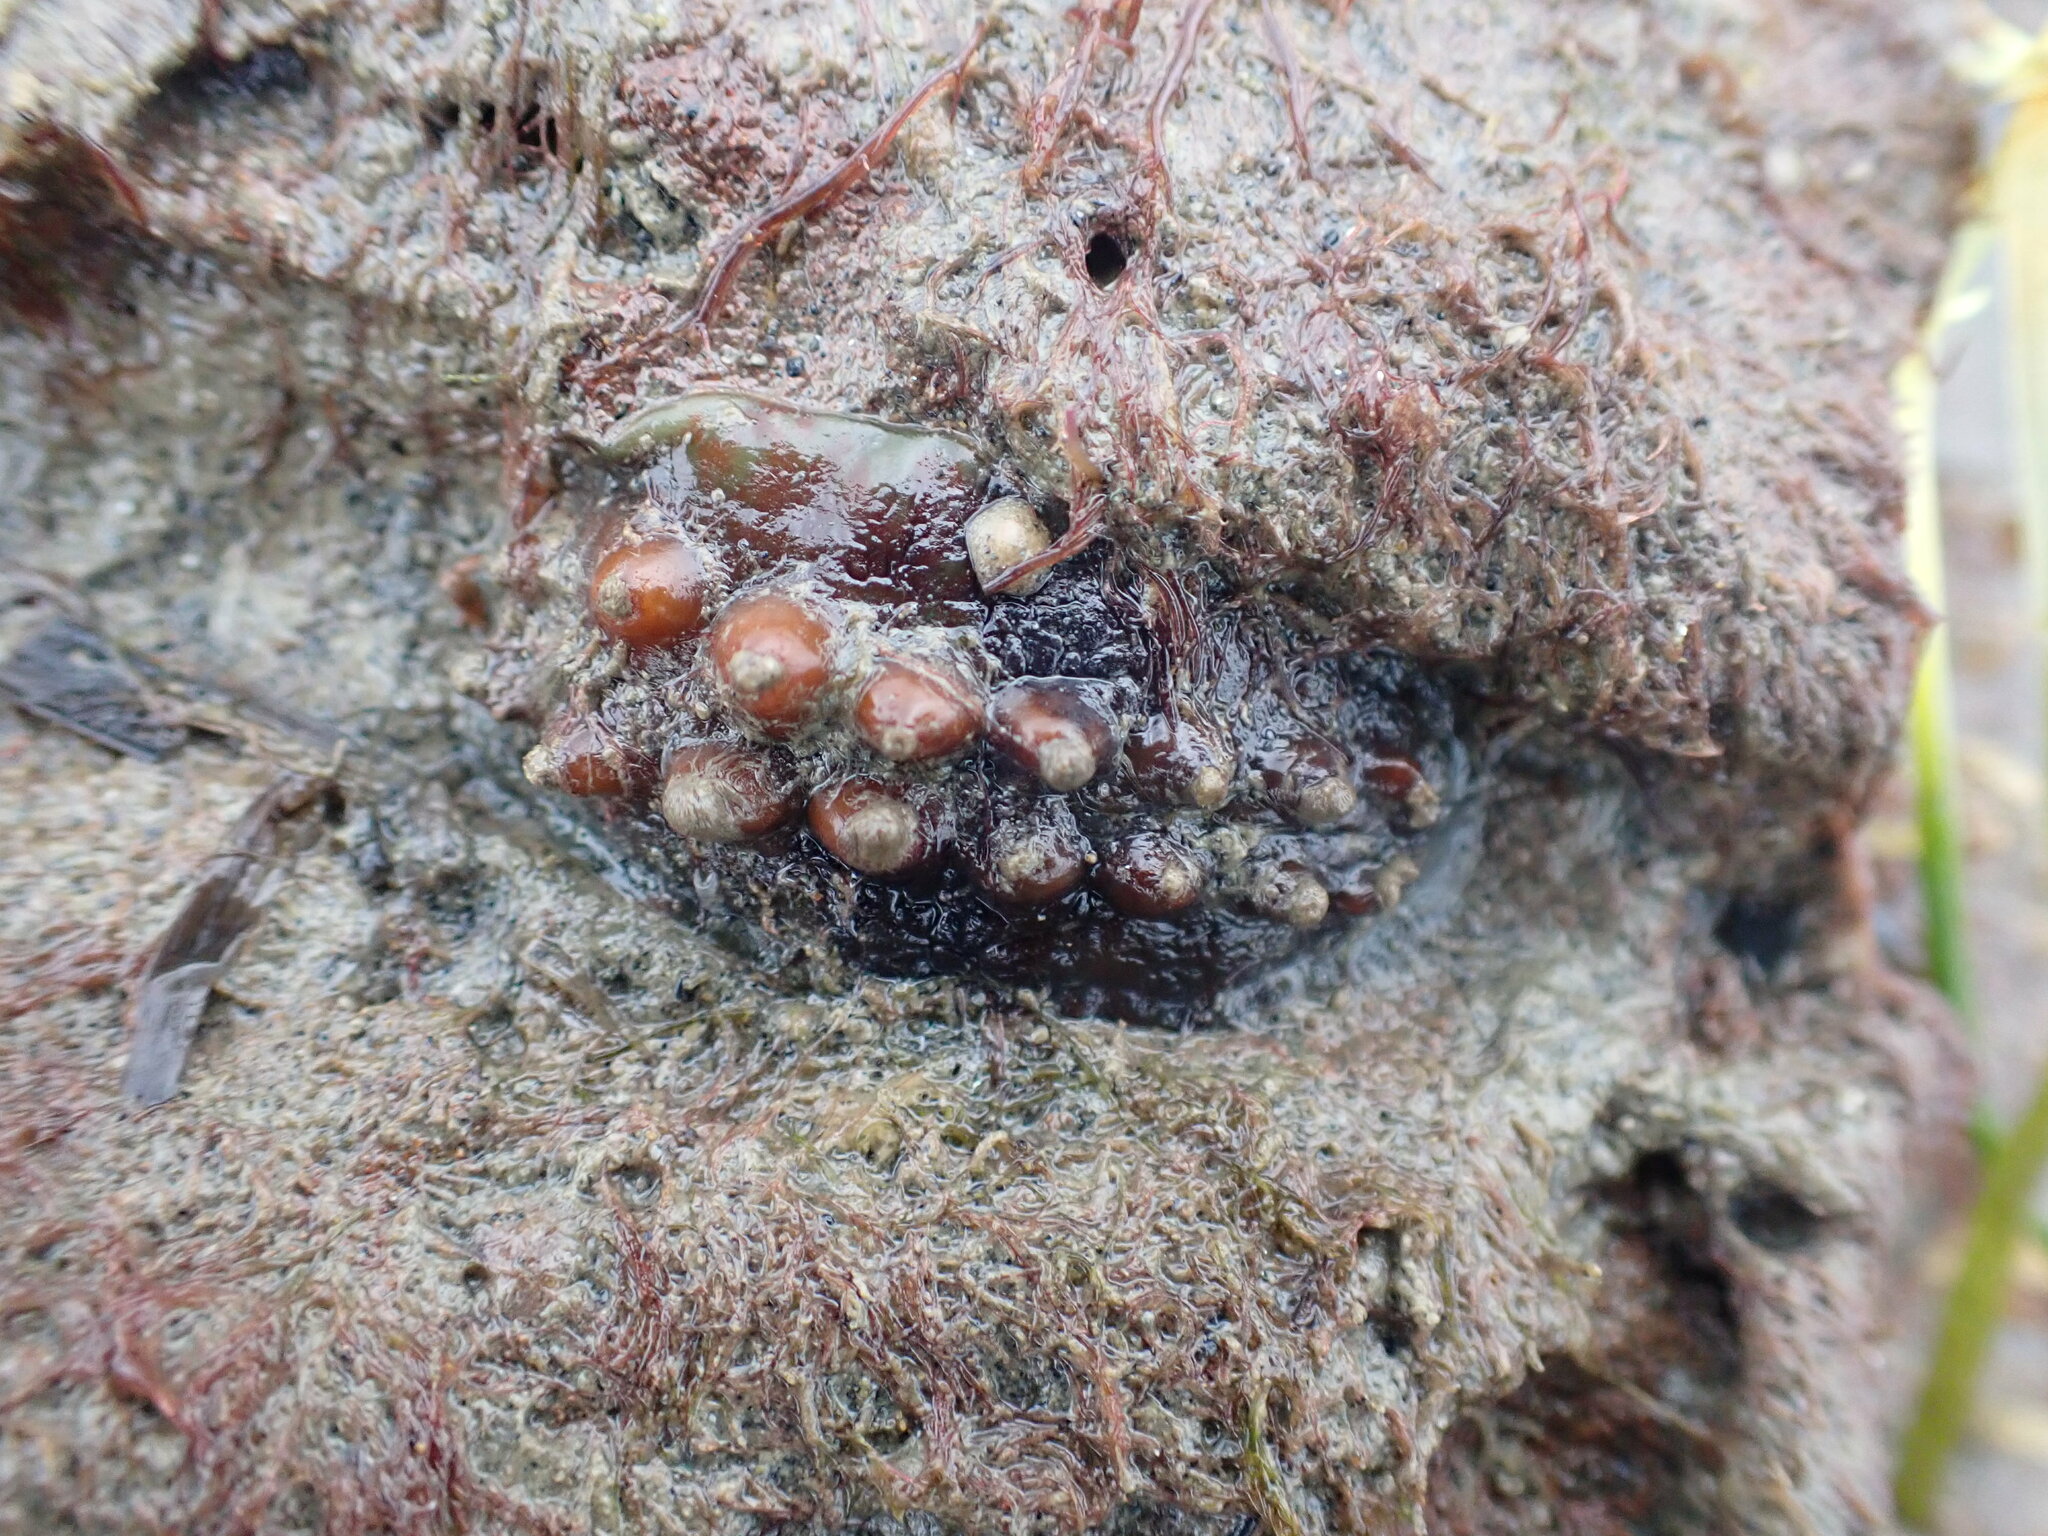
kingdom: Animalia
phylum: Mollusca
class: Polyplacophora
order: Chitonida
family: Acanthochitonidae
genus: Cryptoconchus
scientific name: Cryptoconchus porosus
